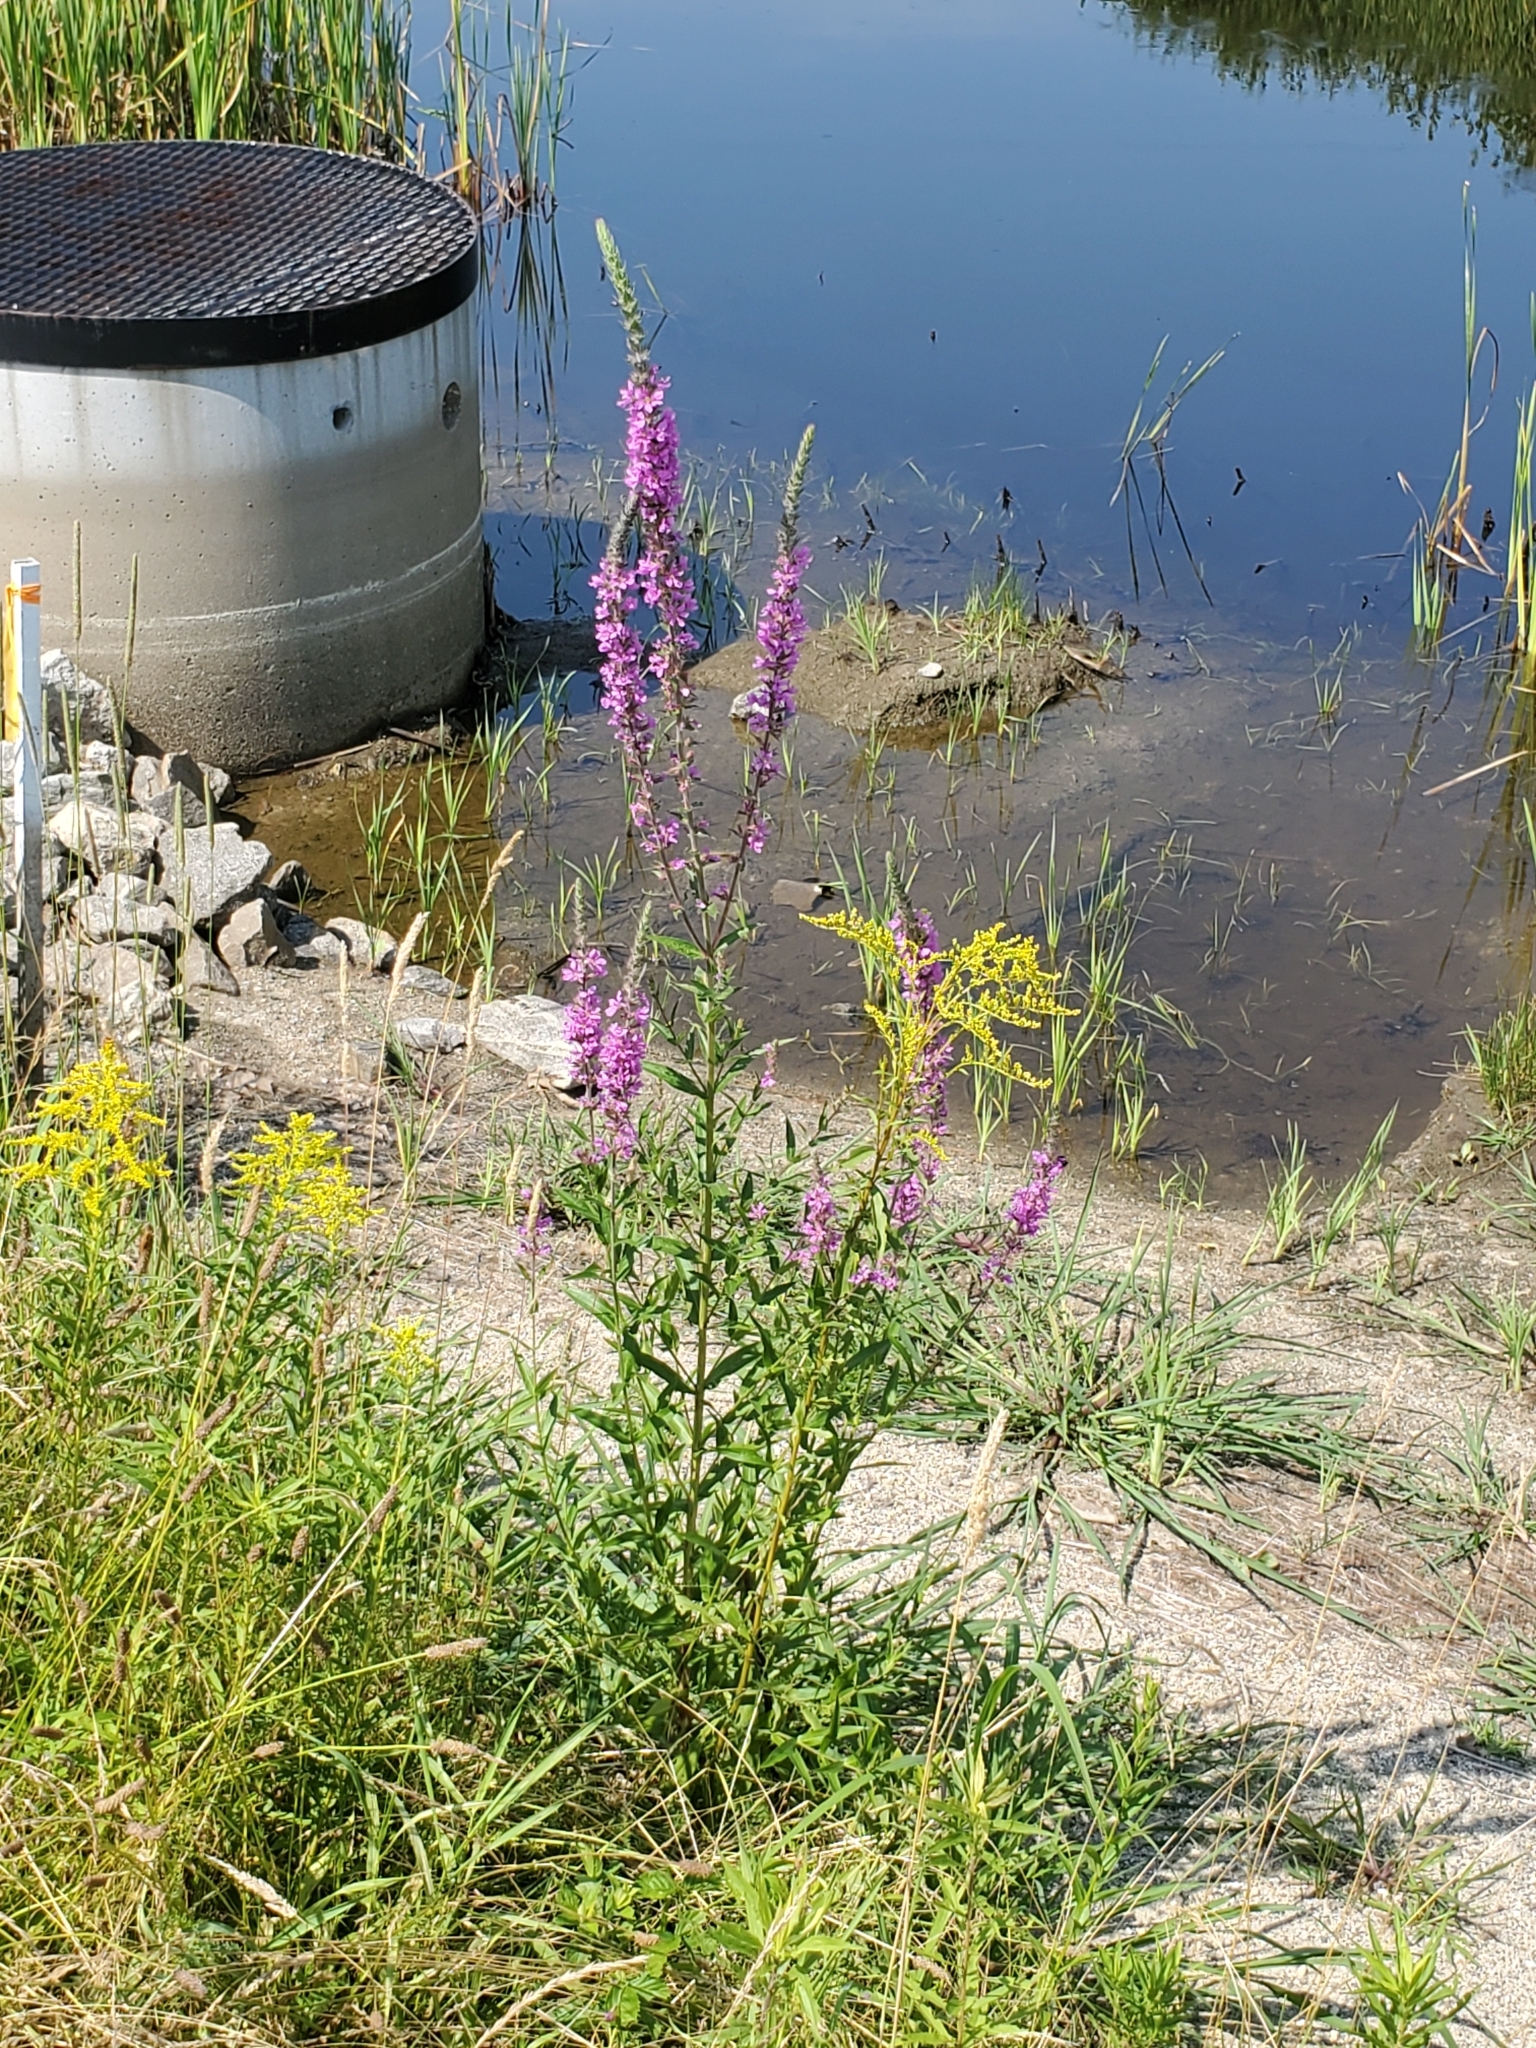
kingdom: Plantae
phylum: Tracheophyta
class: Magnoliopsida
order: Myrtales
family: Lythraceae
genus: Lythrum
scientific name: Lythrum salicaria
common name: Purple loosestrife
